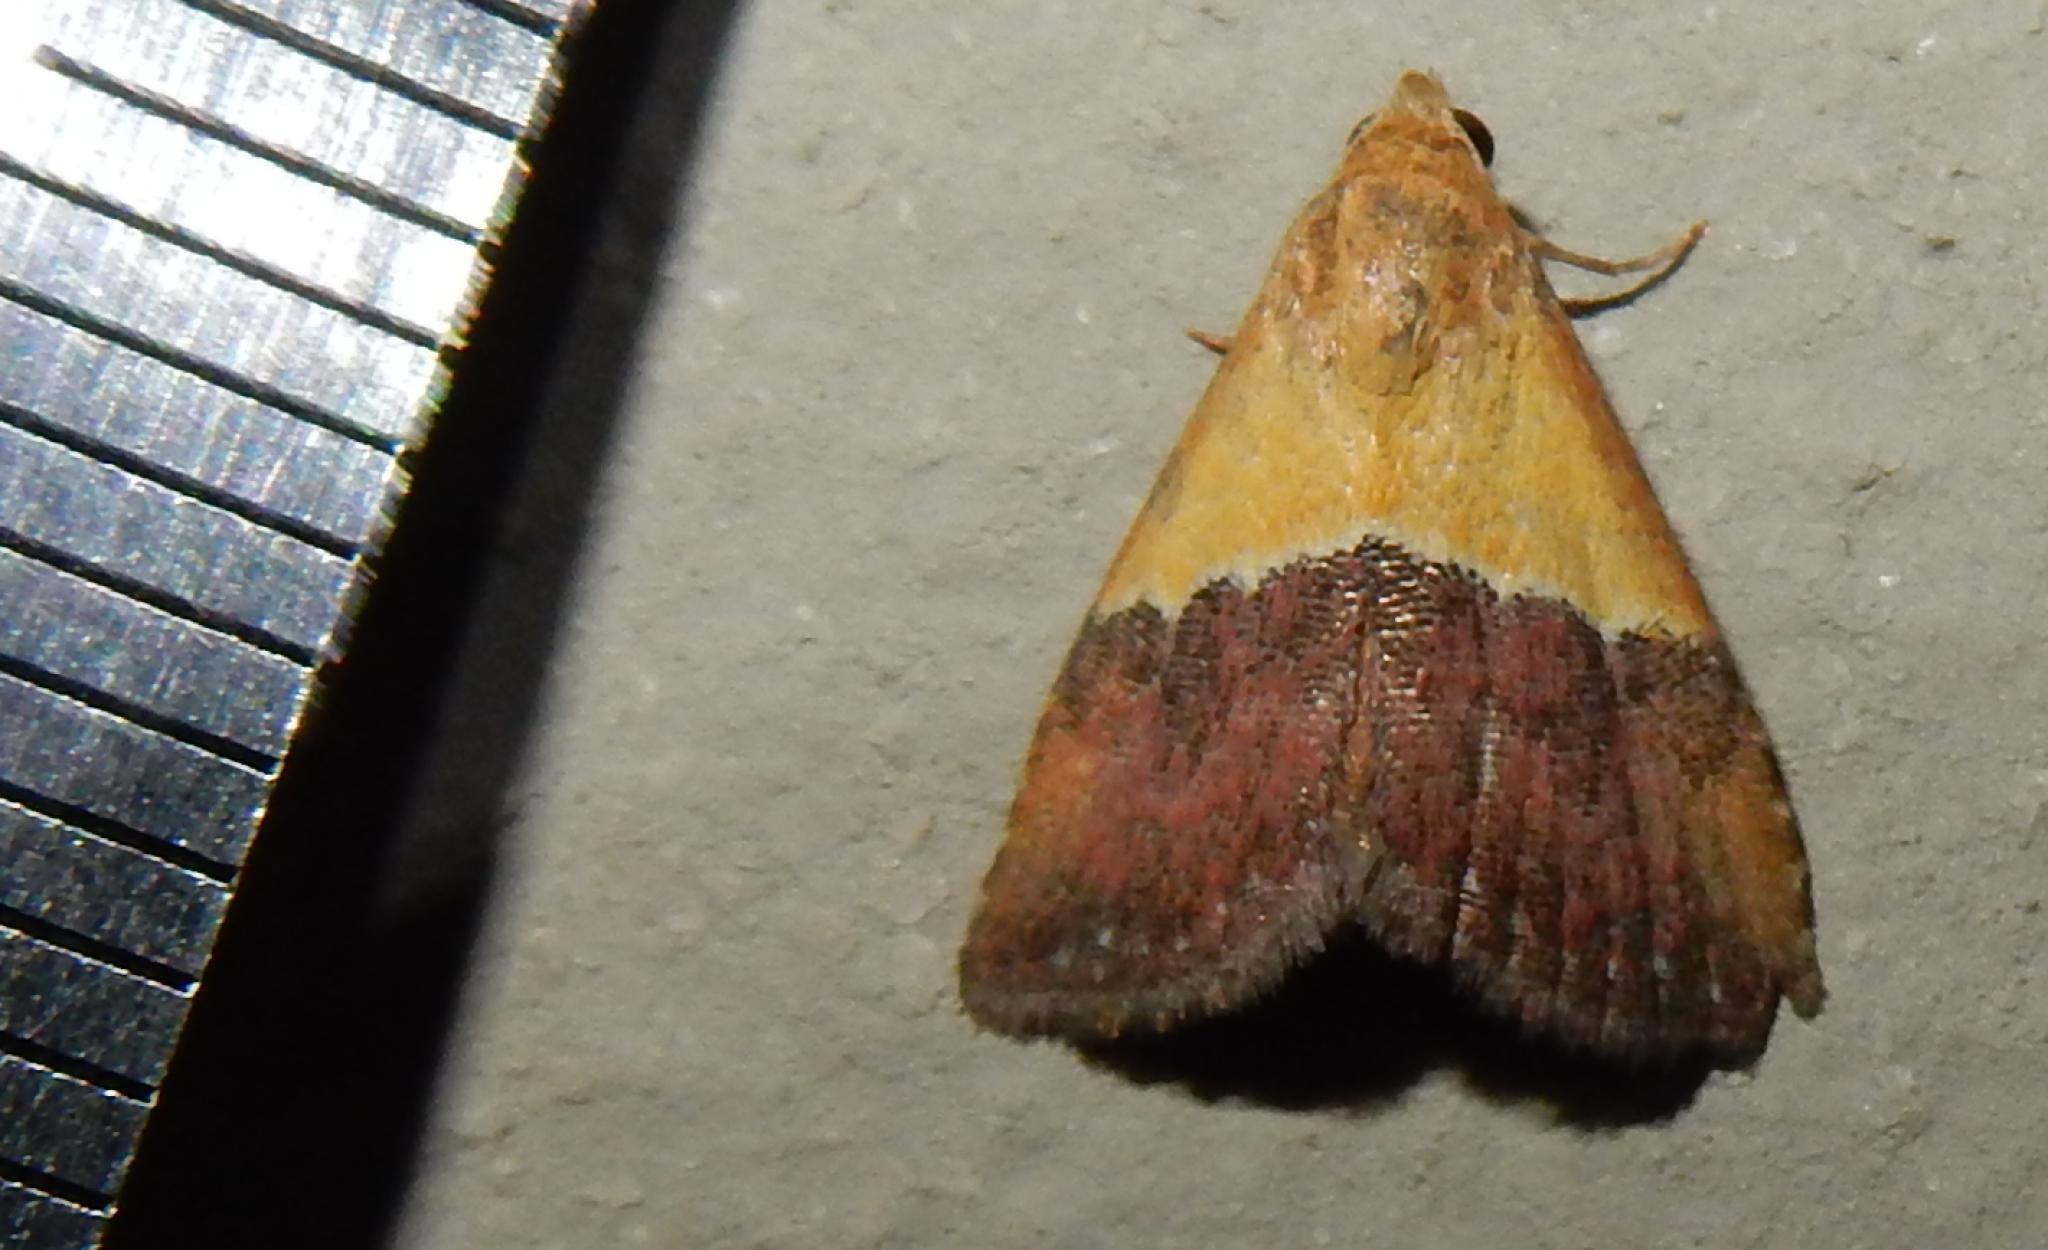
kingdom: Animalia
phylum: Arthropoda
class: Insecta
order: Lepidoptera
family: Noctuidae
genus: Eublemma
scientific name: Eublemma caffrorum
